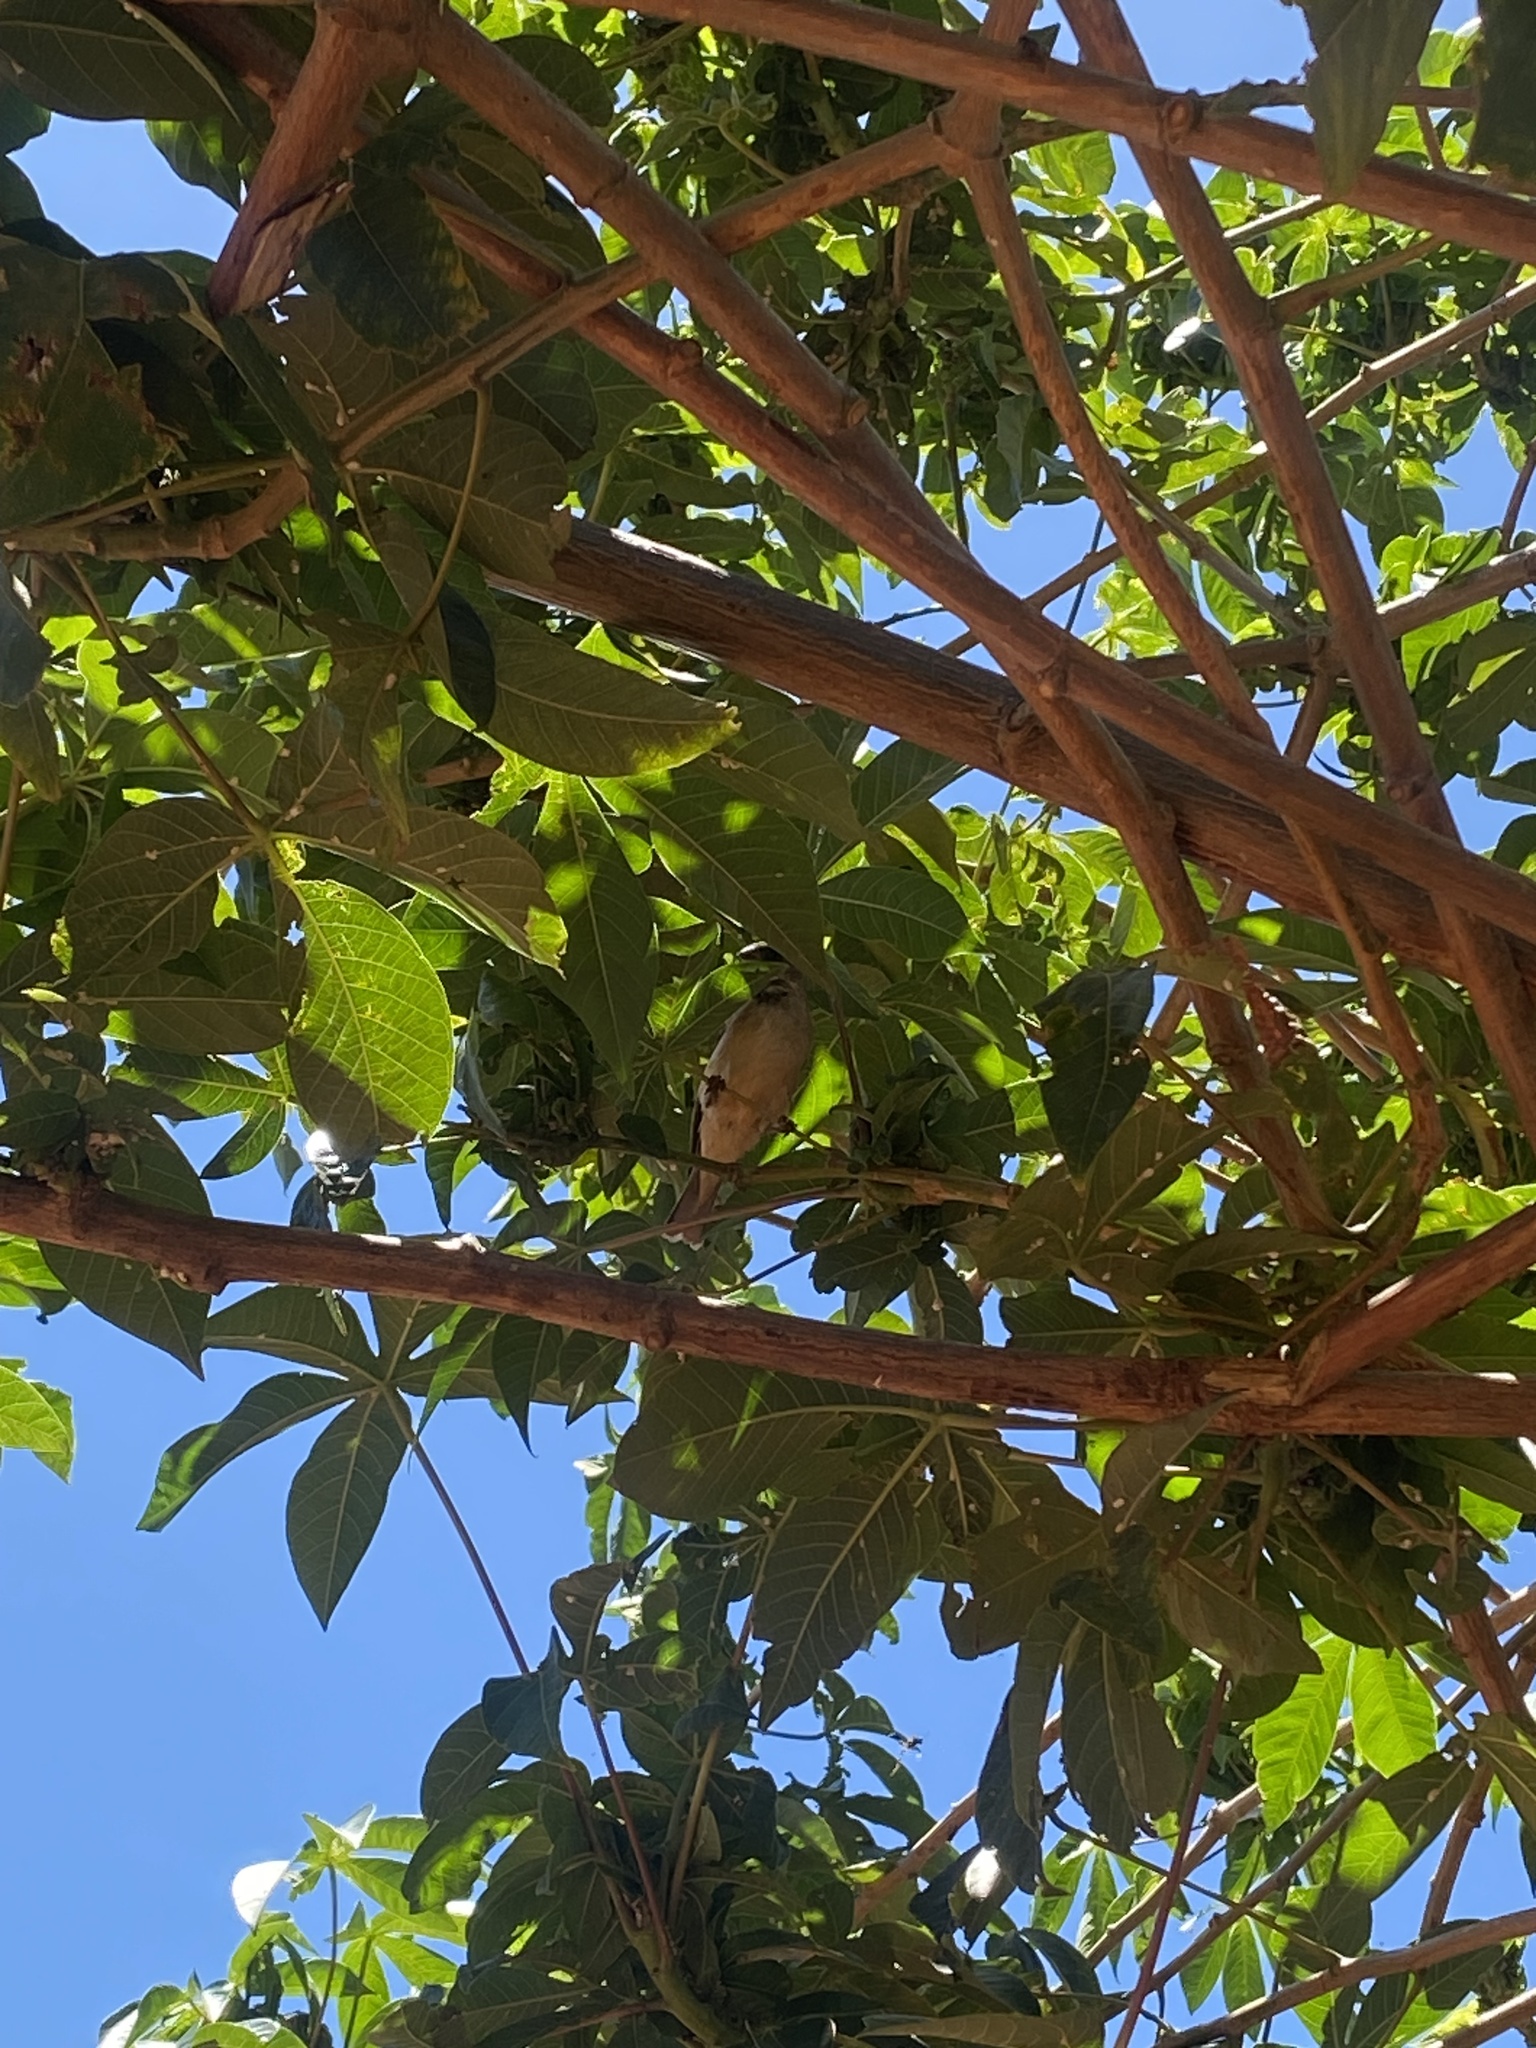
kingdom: Animalia
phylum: Chordata
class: Aves
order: Passeriformes
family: Fringillidae
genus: Crithagra
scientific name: Crithagra atrogularis
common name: Black-throated canary
